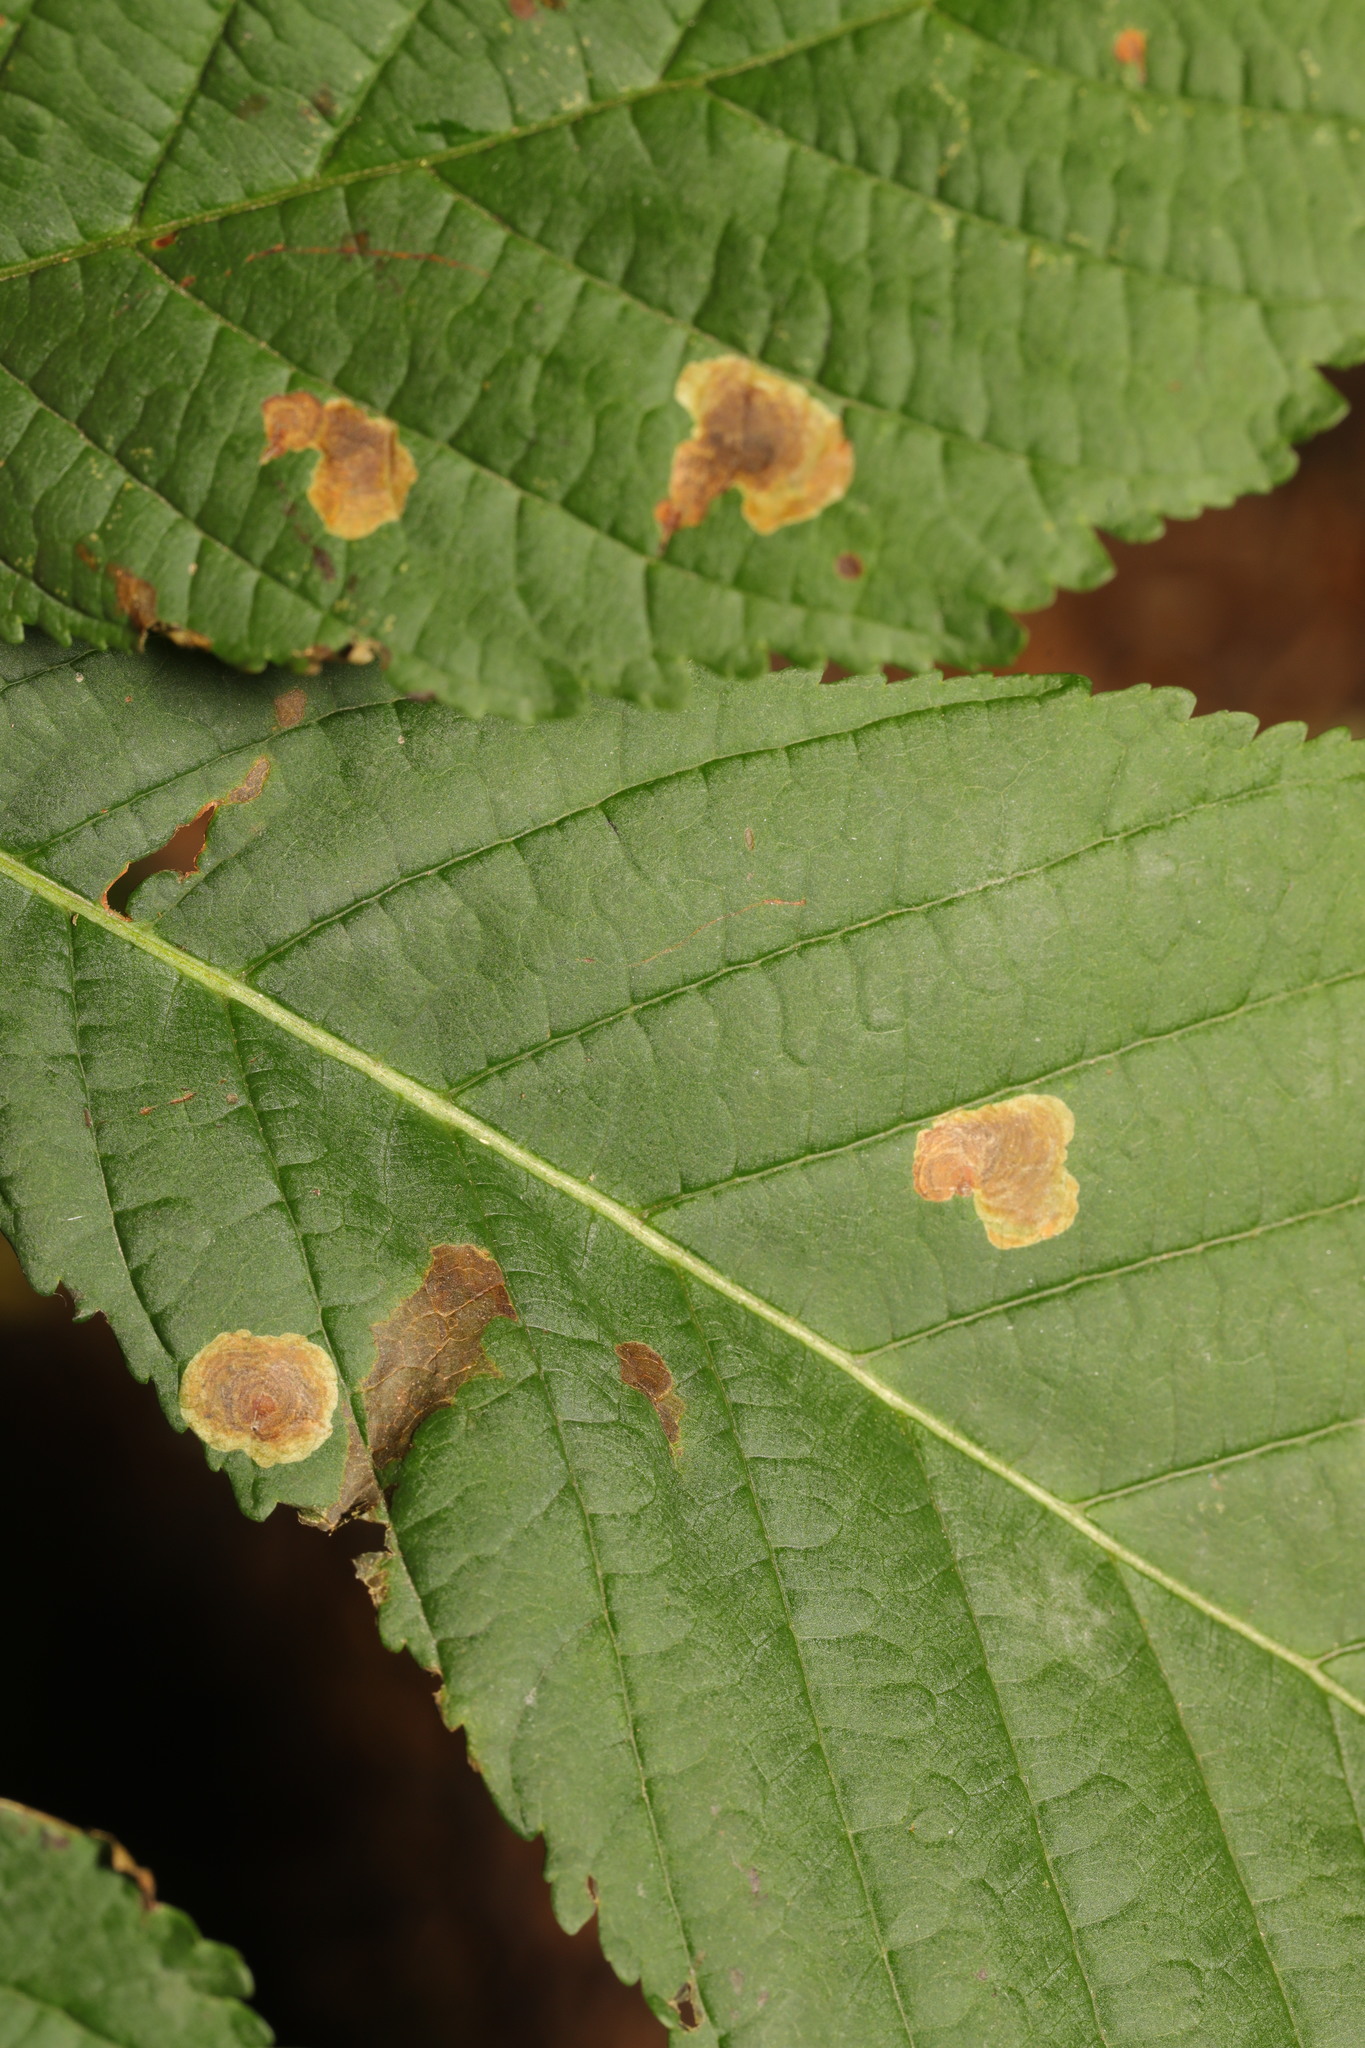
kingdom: Animalia
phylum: Arthropoda
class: Insecta
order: Lepidoptera
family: Gracillariidae
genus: Cameraria
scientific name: Cameraria ohridella
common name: Horse-chestnut leaf-miner
